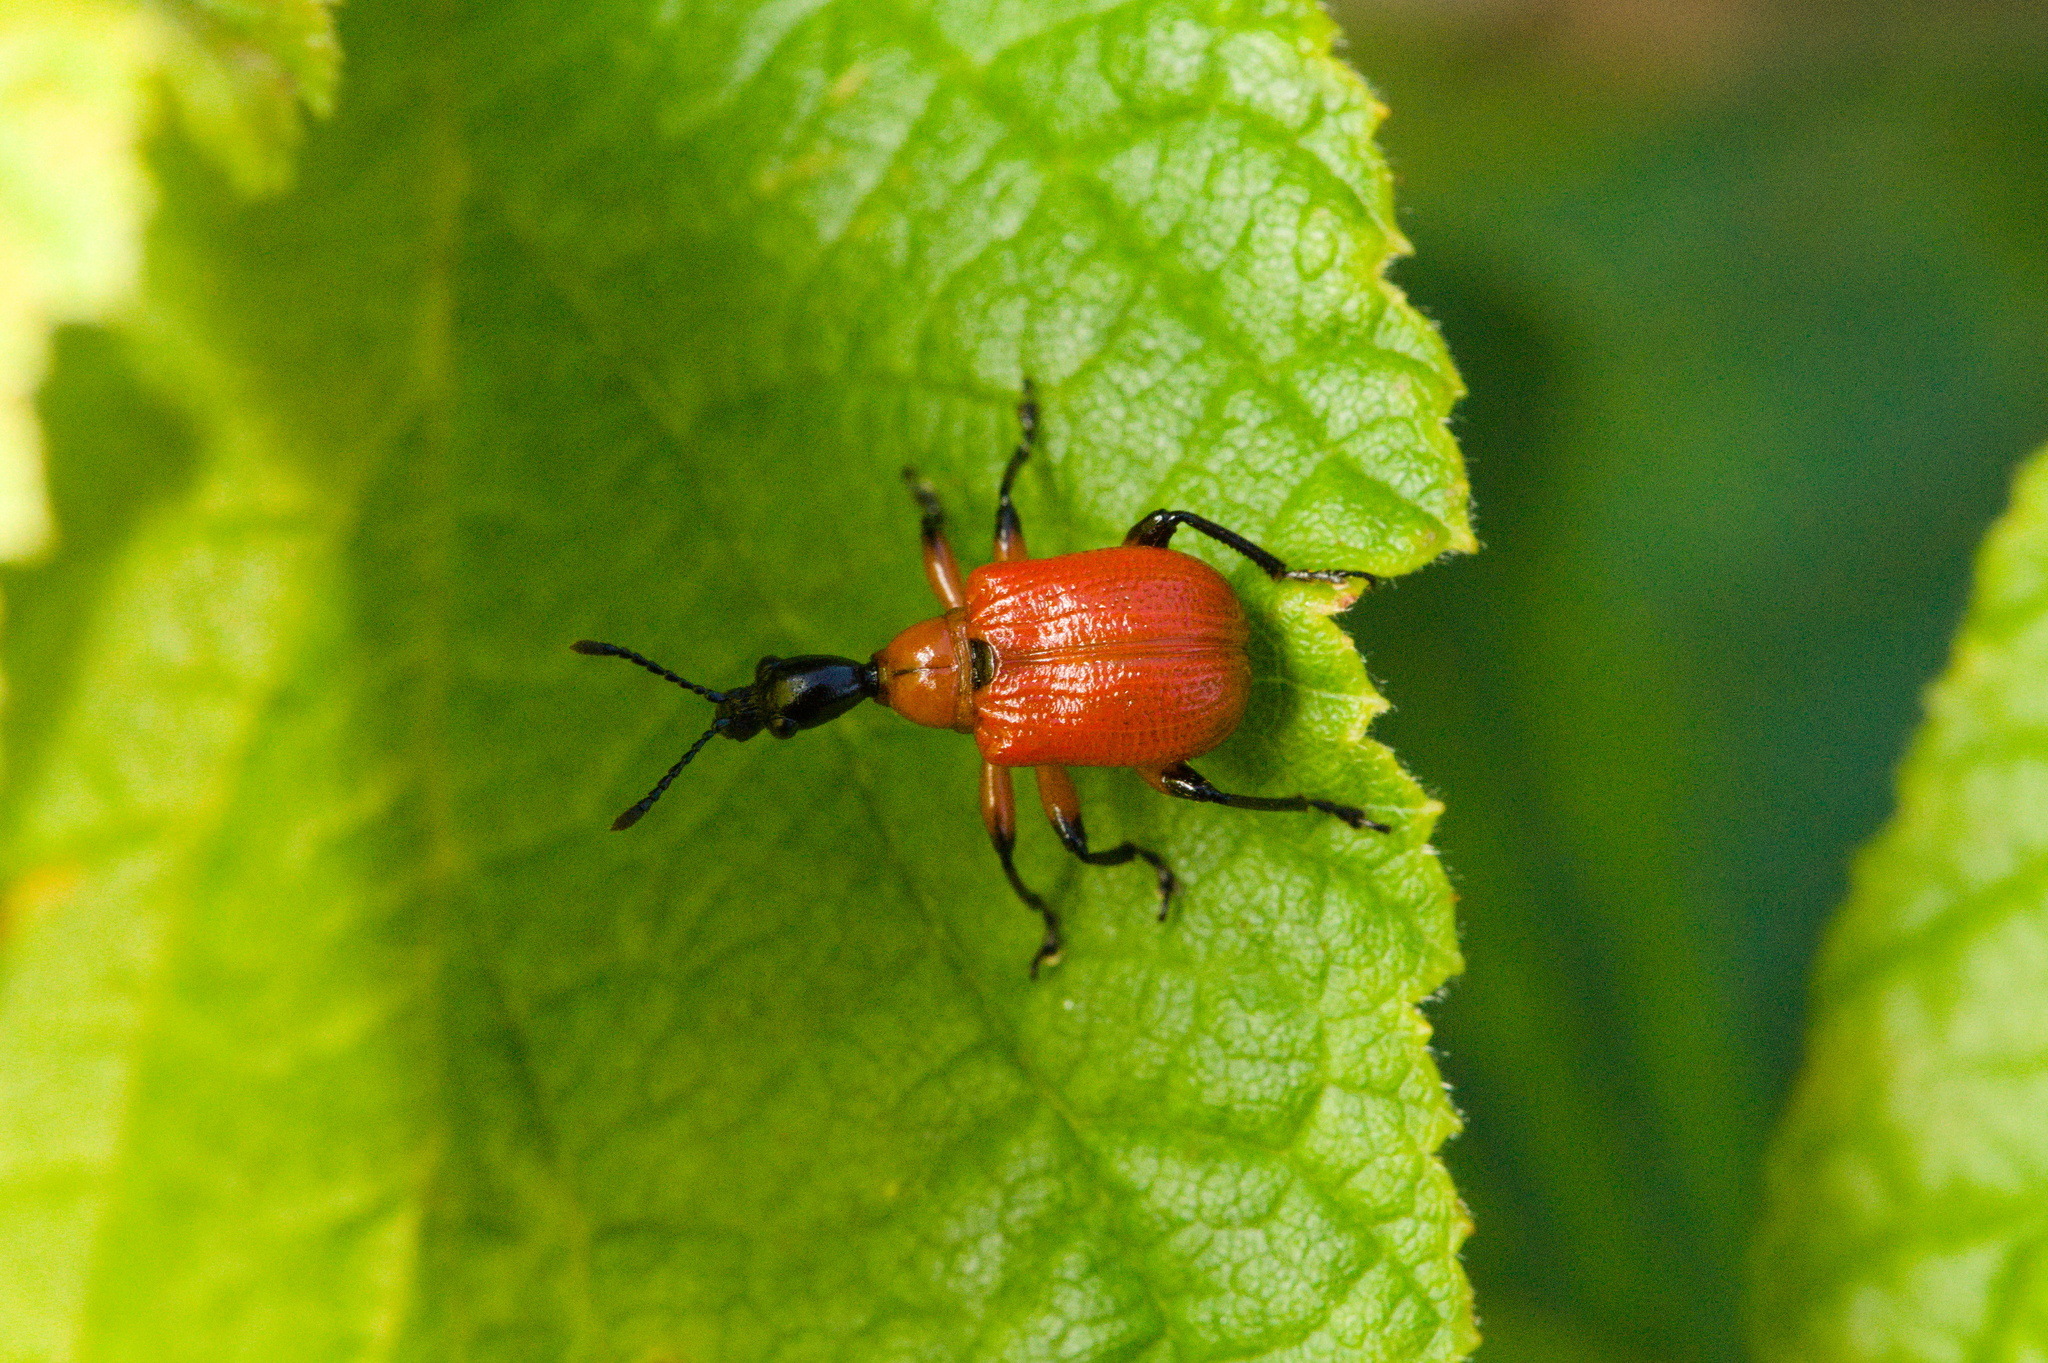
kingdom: Animalia
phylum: Arthropoda
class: Insecta
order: Coleoptera
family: Attelabidae
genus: Apoderus
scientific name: Apoderus coryli
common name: Hazel leaf roller
